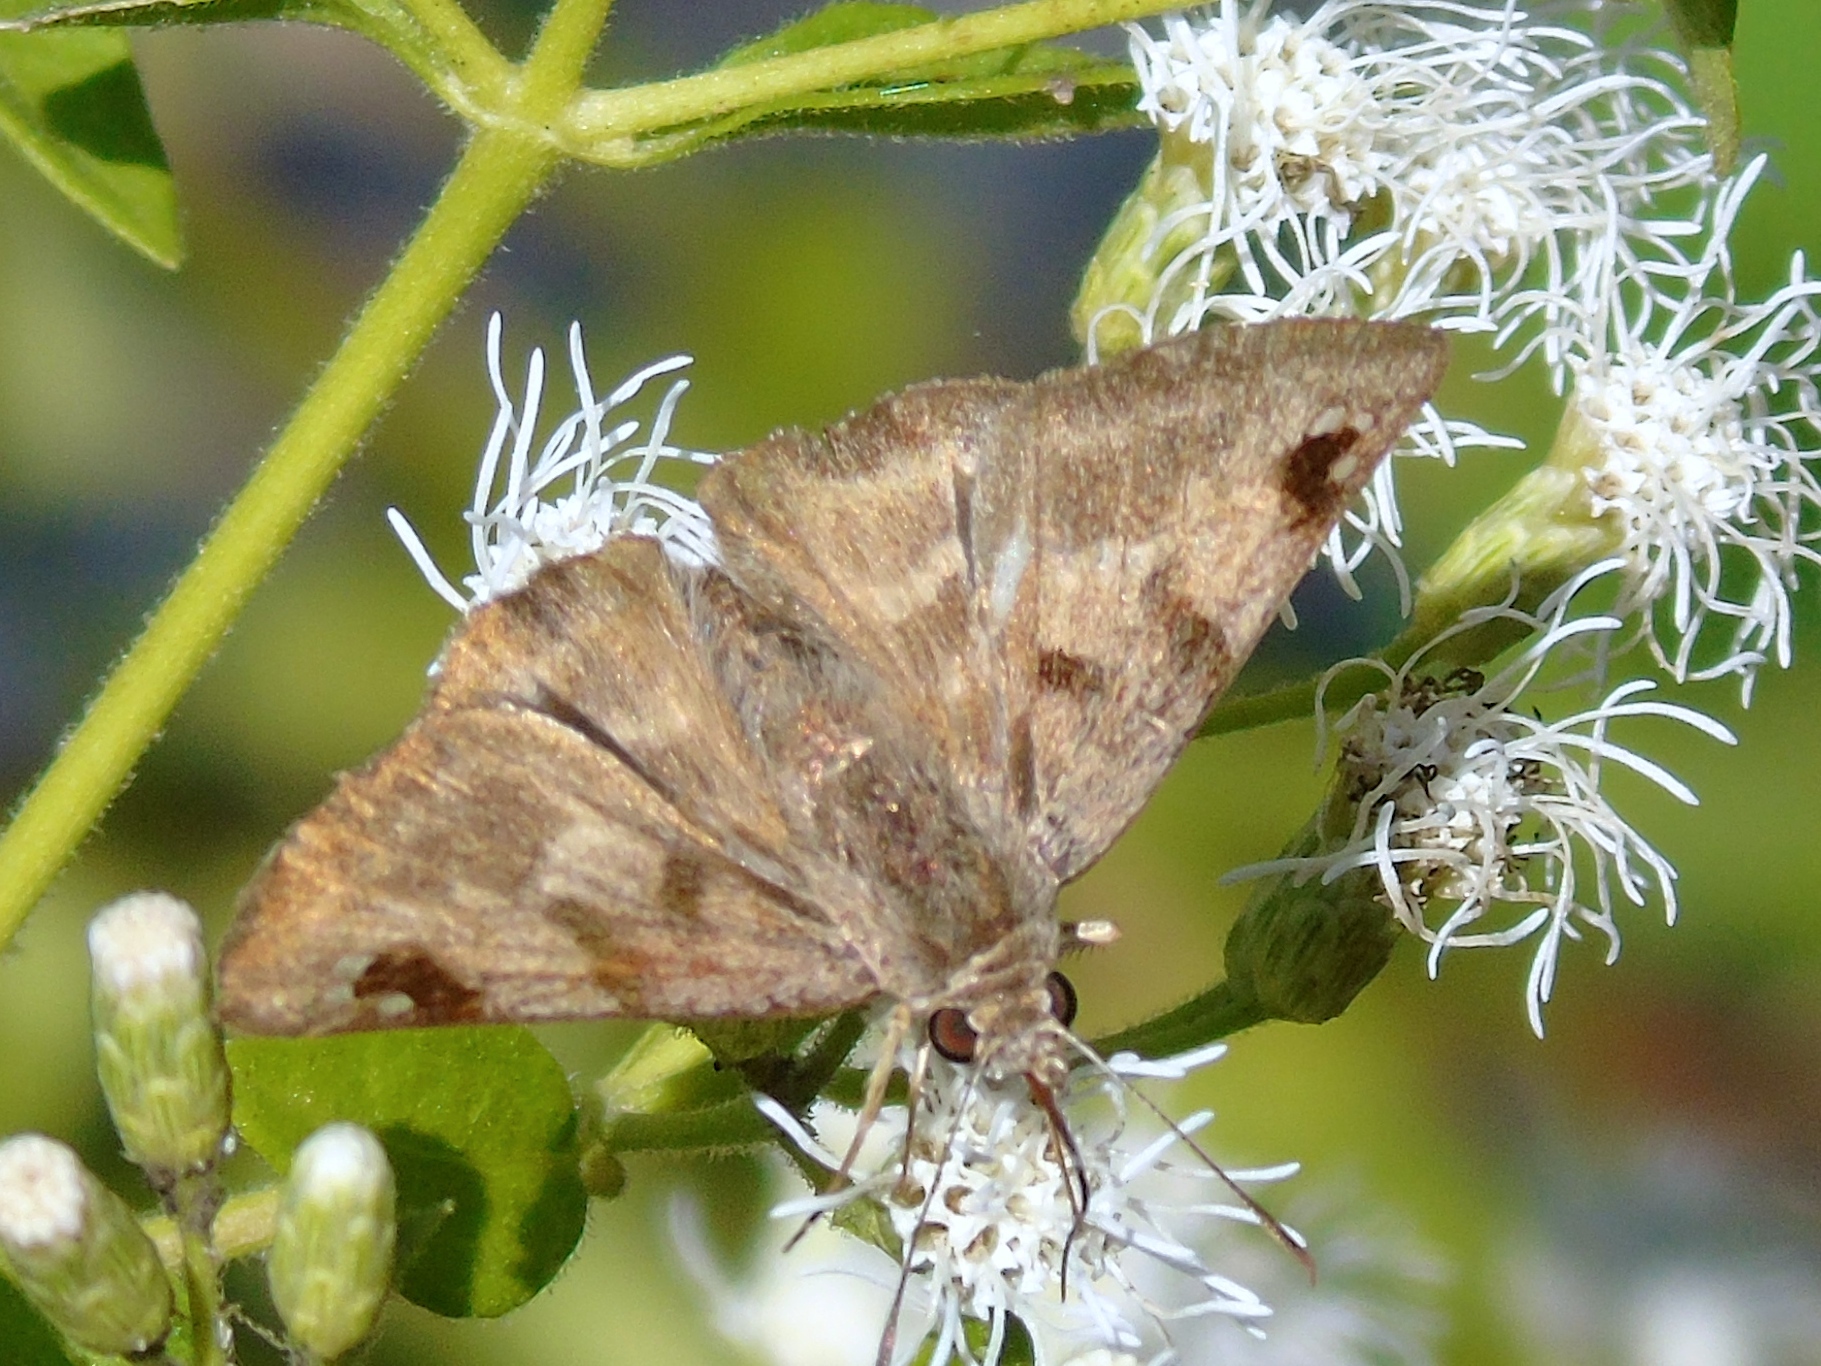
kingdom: Animalia
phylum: Arthropoda
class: Insecta
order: Lepidoptera
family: Hesperiidae
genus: Arteurotia
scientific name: Arteurotia tractipennis
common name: Starred skipper
